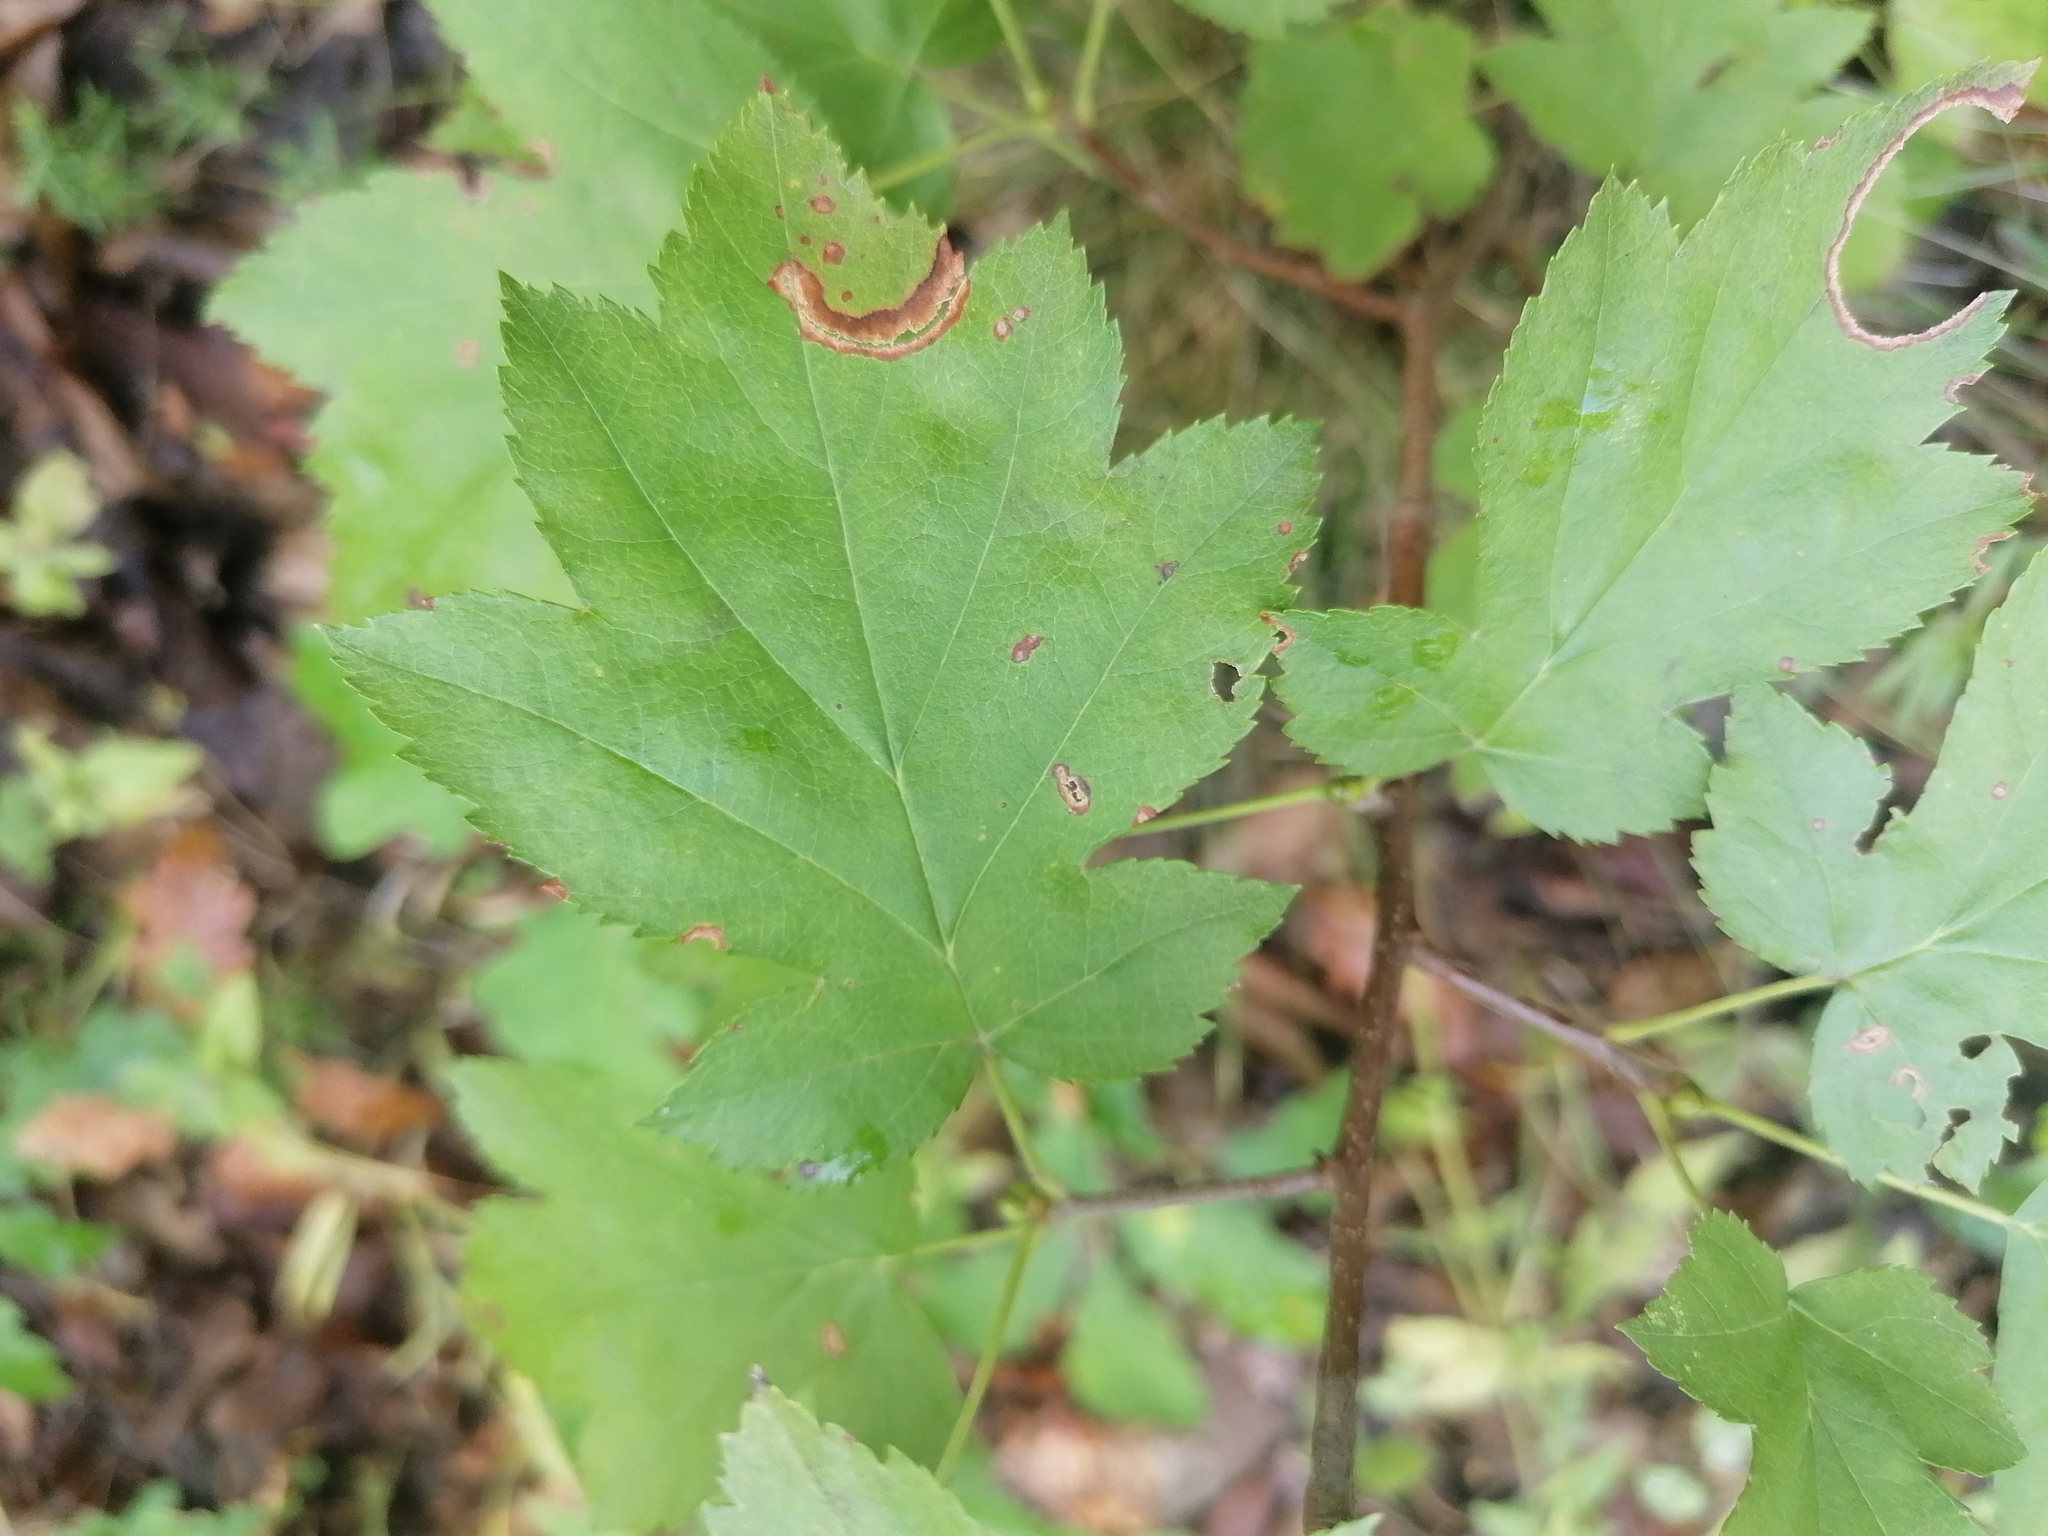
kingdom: Plantae
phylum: Tracheophyta
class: Magnoliopsida
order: Rosales
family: Rosaceae
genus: Torminalis
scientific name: Torminalis glaberrima
